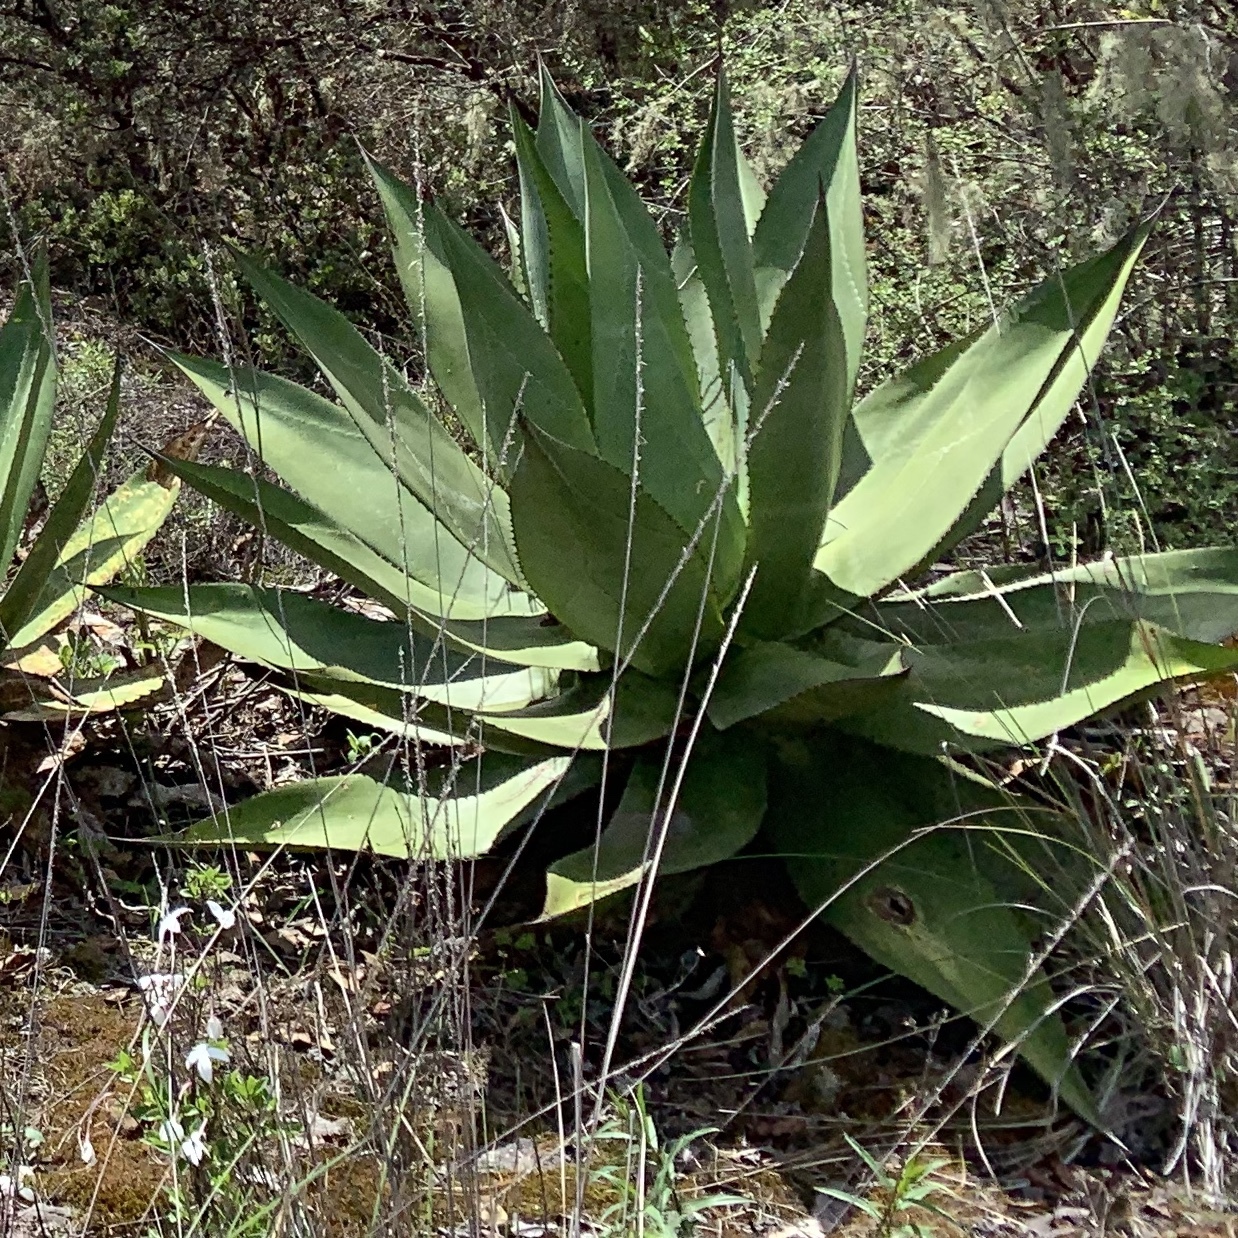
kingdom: Plantae
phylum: Tracheophyta
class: Liliopsida
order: Asparagales
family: Asparagaceae
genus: Agave
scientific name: Agave marmorata
